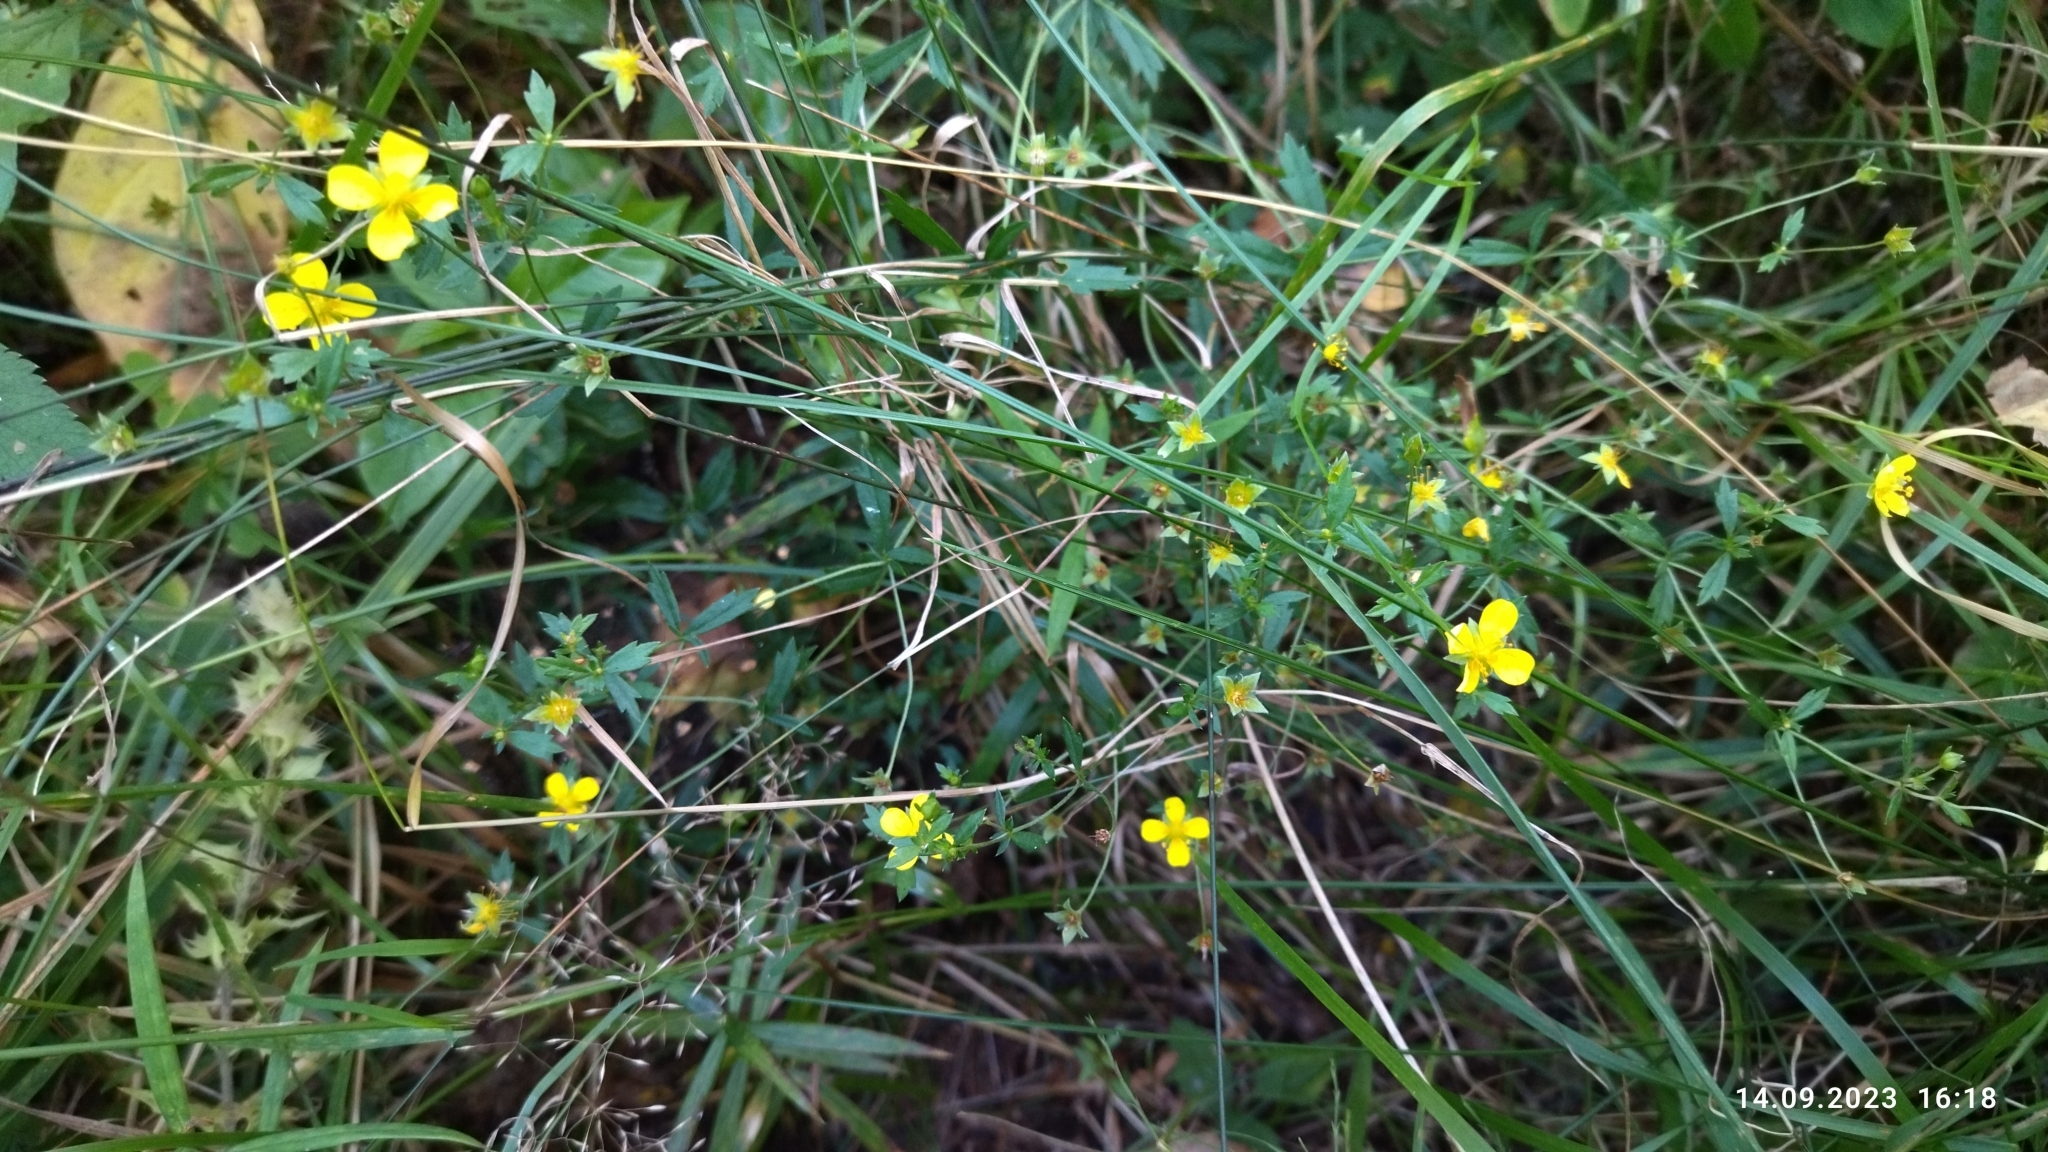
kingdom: Plantae
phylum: Tracheophyta
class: Magnoliopsida
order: Rosales
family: Rosaceae
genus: Potentilla
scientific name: Potentilla erecta
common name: Tormentil
